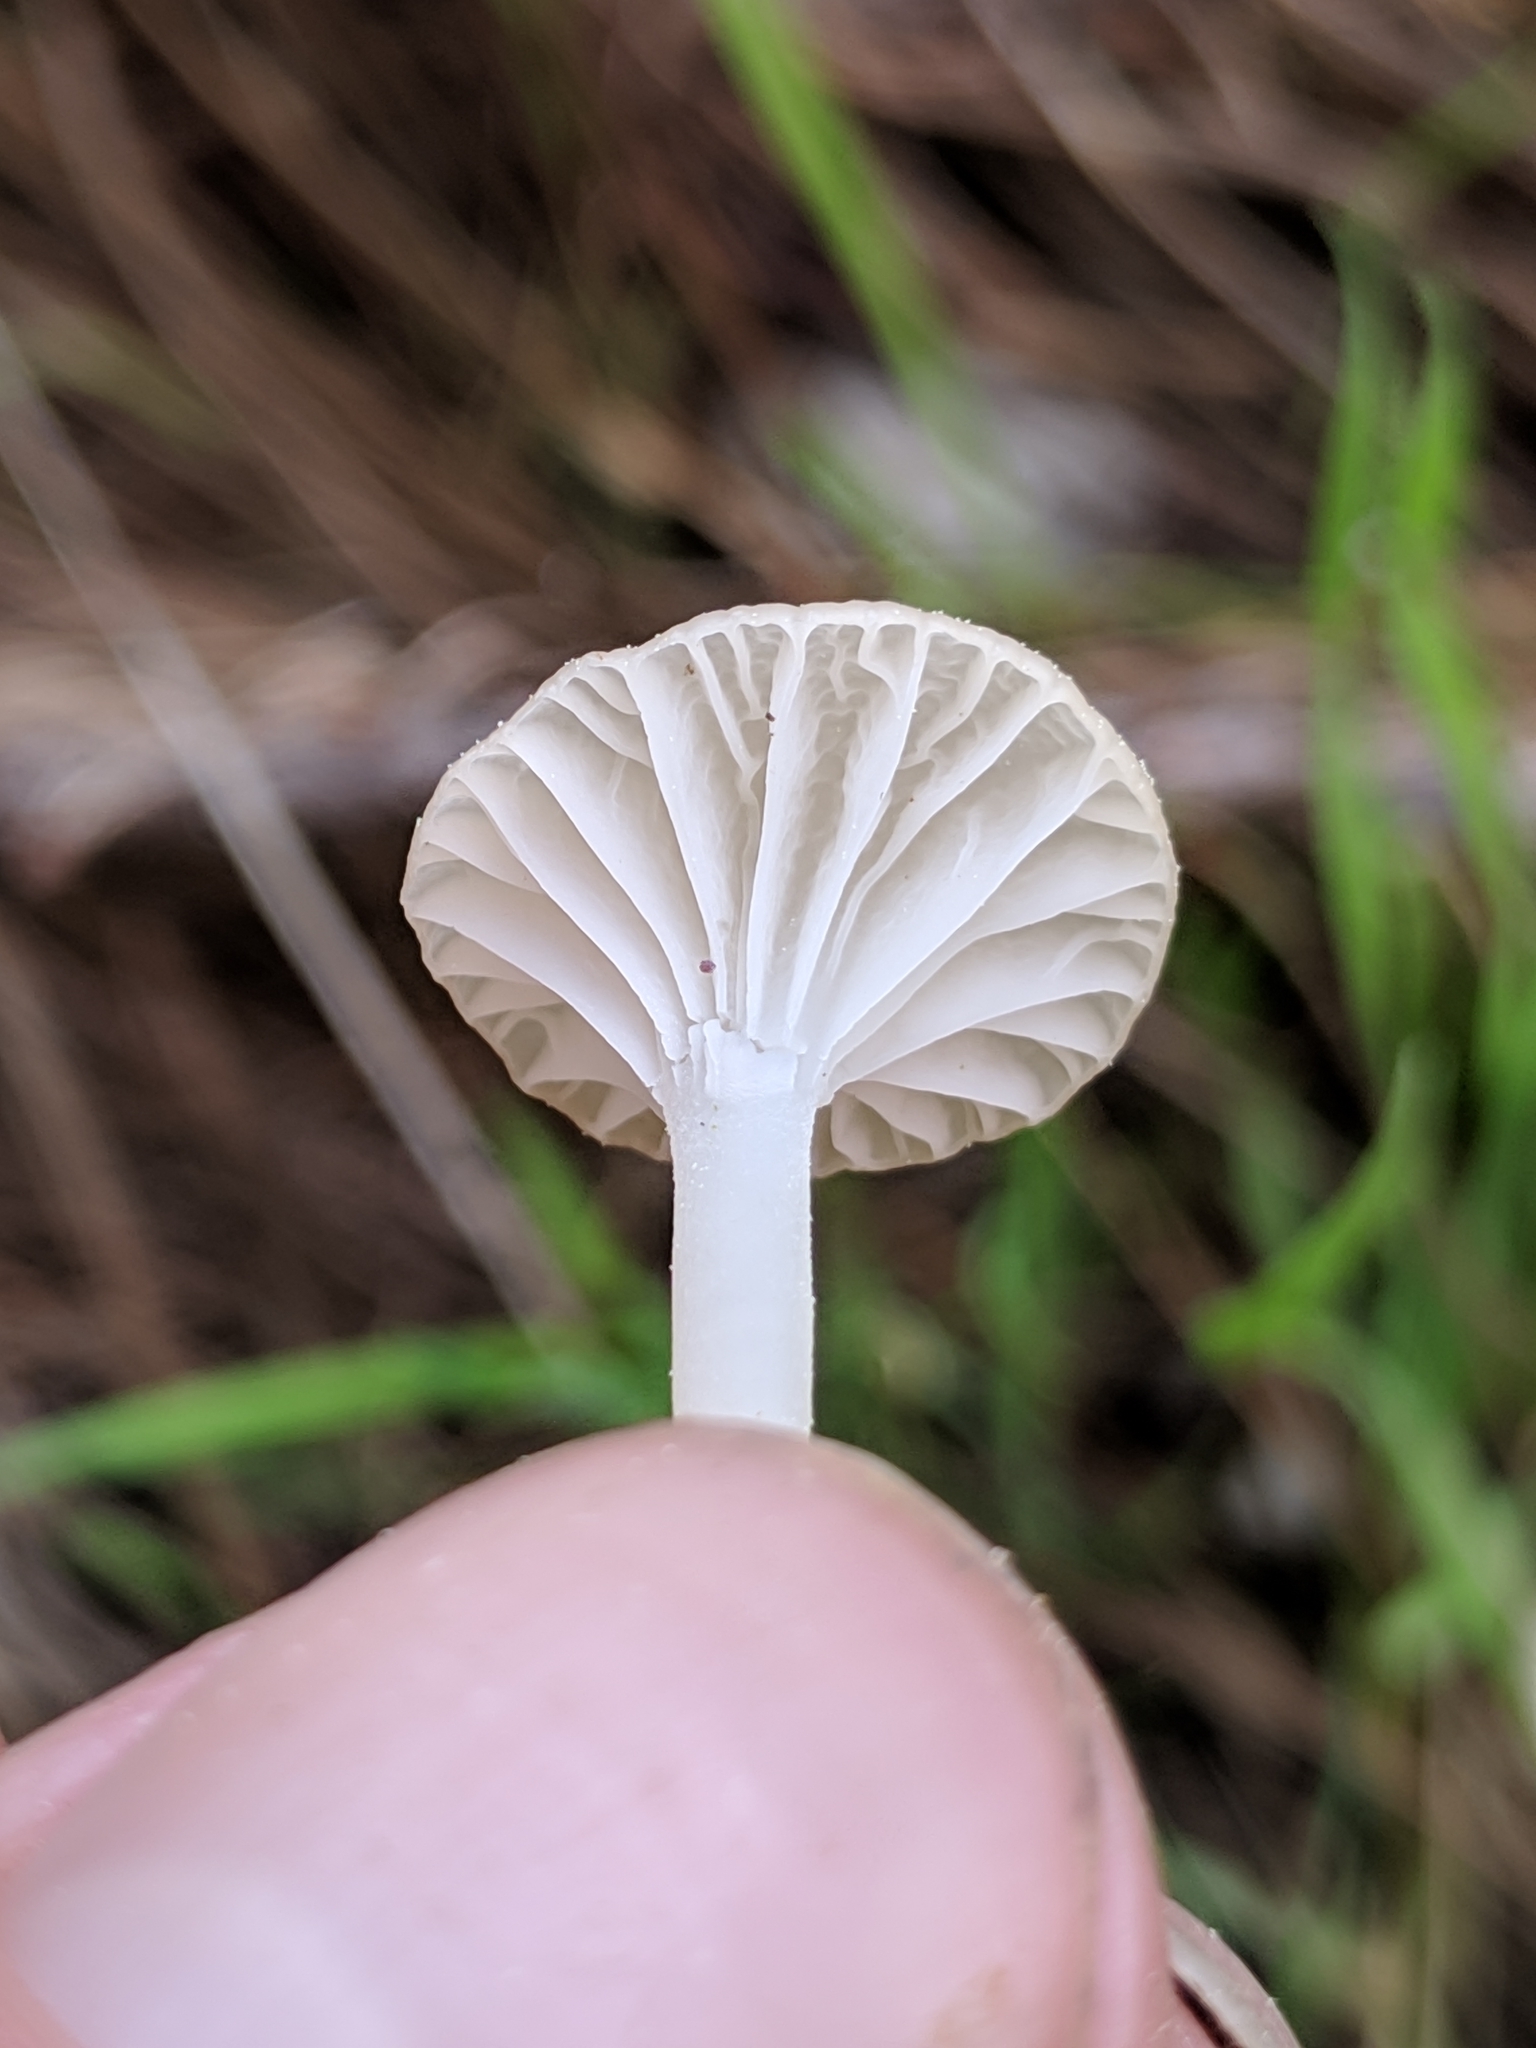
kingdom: Fungi
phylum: Basidiomycota
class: Agaricomycetes
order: Agaricales
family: Marasmiaceae
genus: Marasmius
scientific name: Marasmius calhouniae
